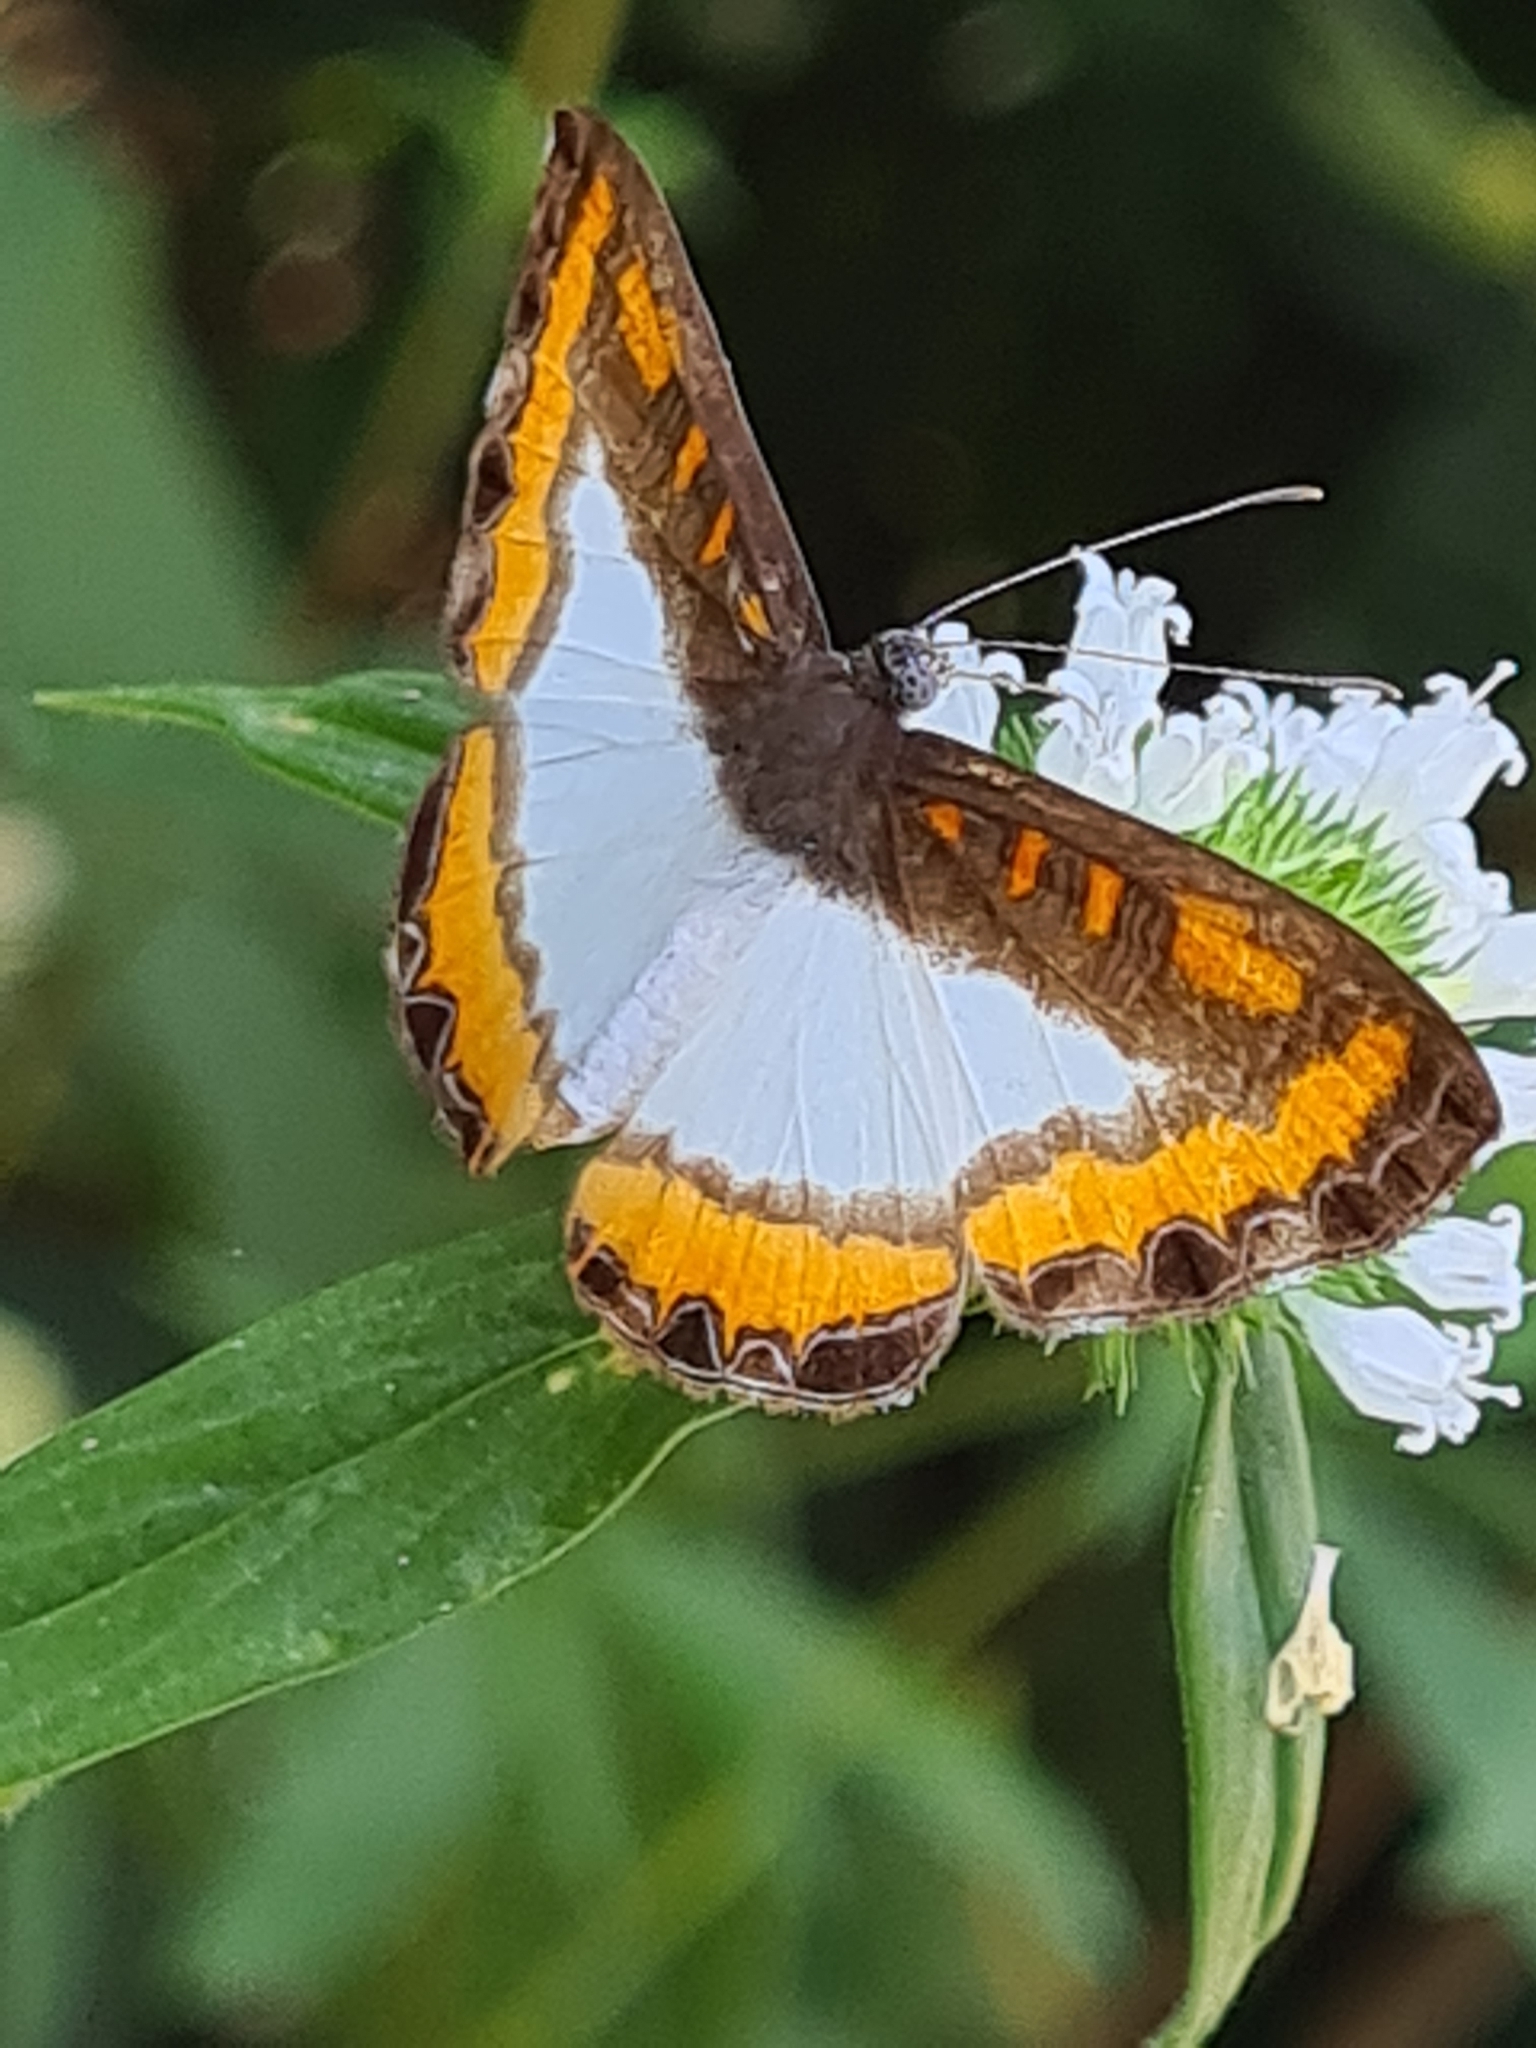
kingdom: Animalia
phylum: Arthropoda
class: Insecta
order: Lepidoptera
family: Riodinidae
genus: Nymula
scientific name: Nymula calyce
